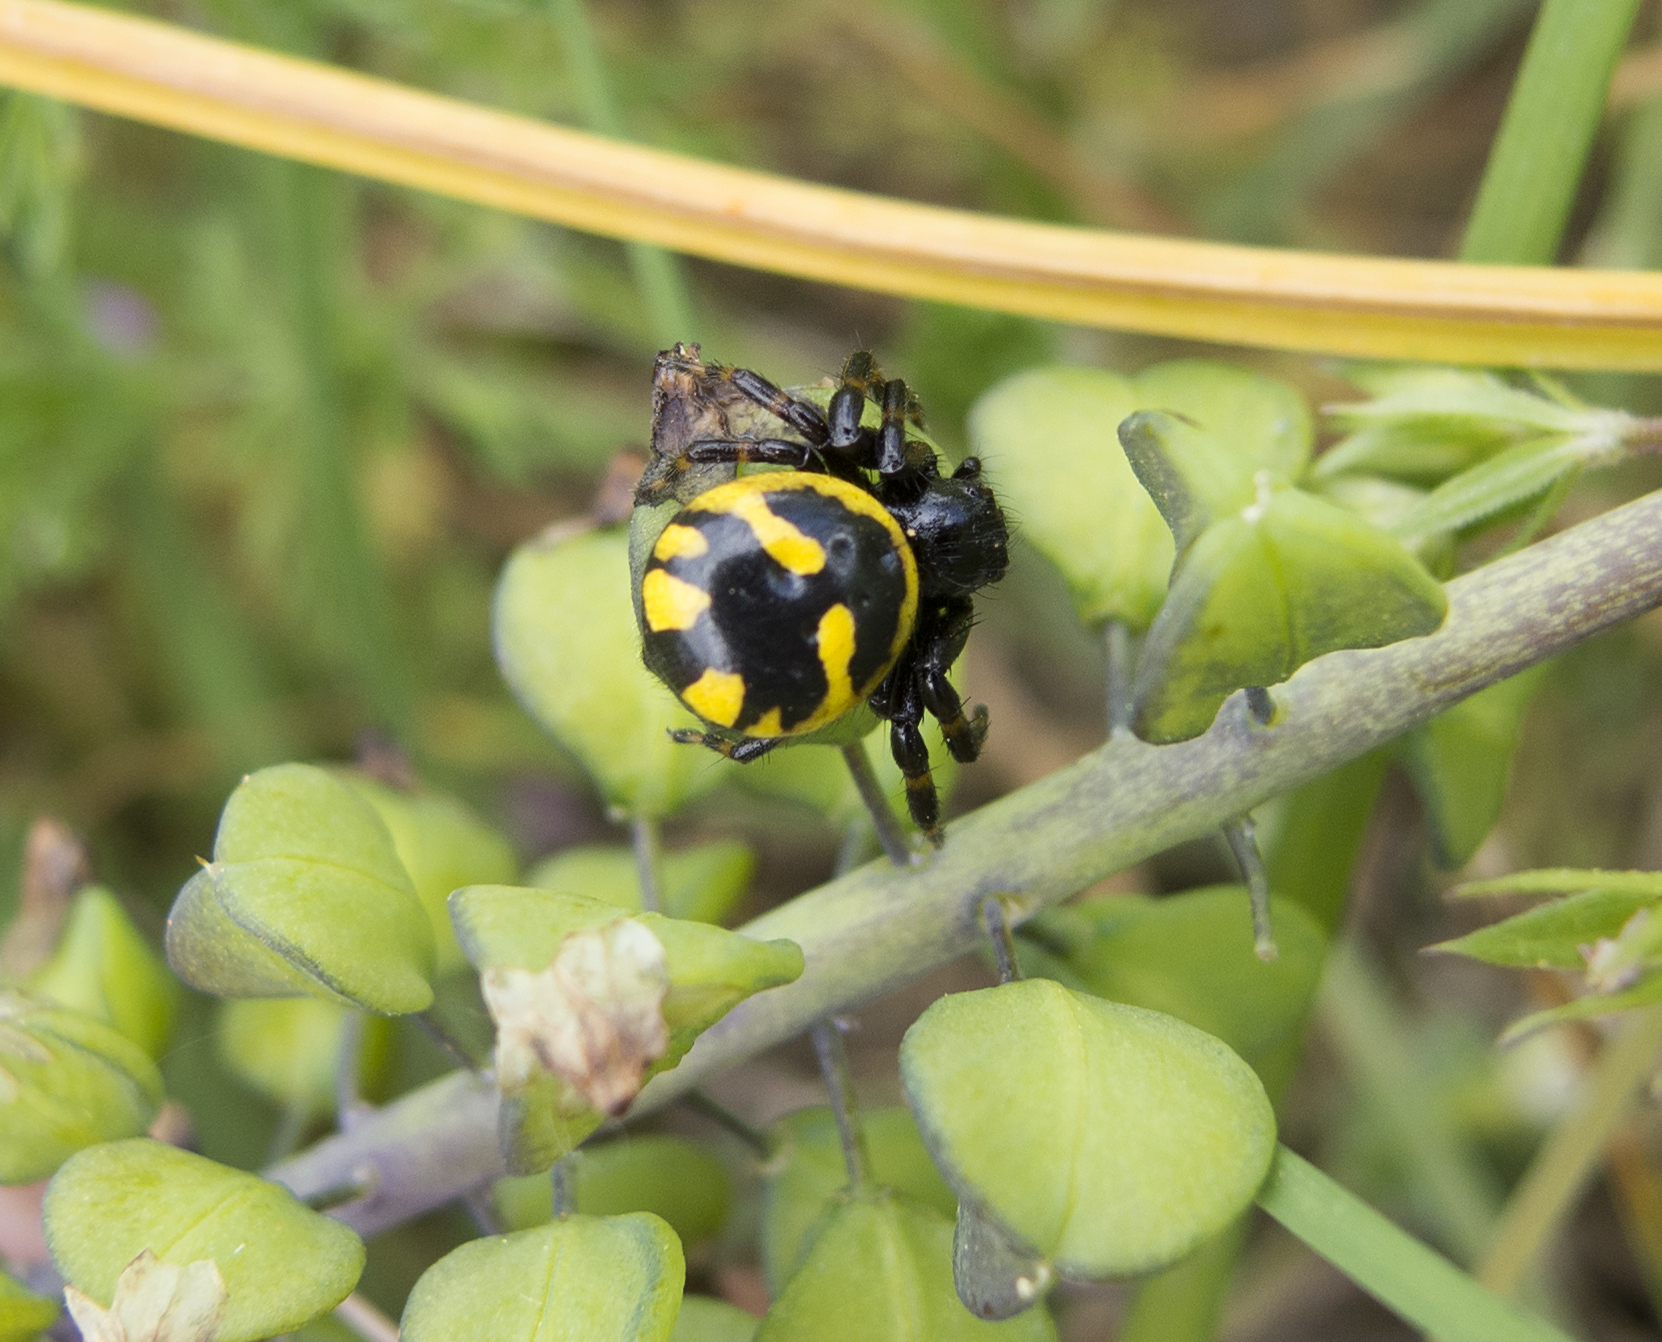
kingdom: Animalia
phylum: Arthropoda
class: Arachnida
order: Araneae
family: Thomisidae
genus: Synema
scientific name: Synema globosum
